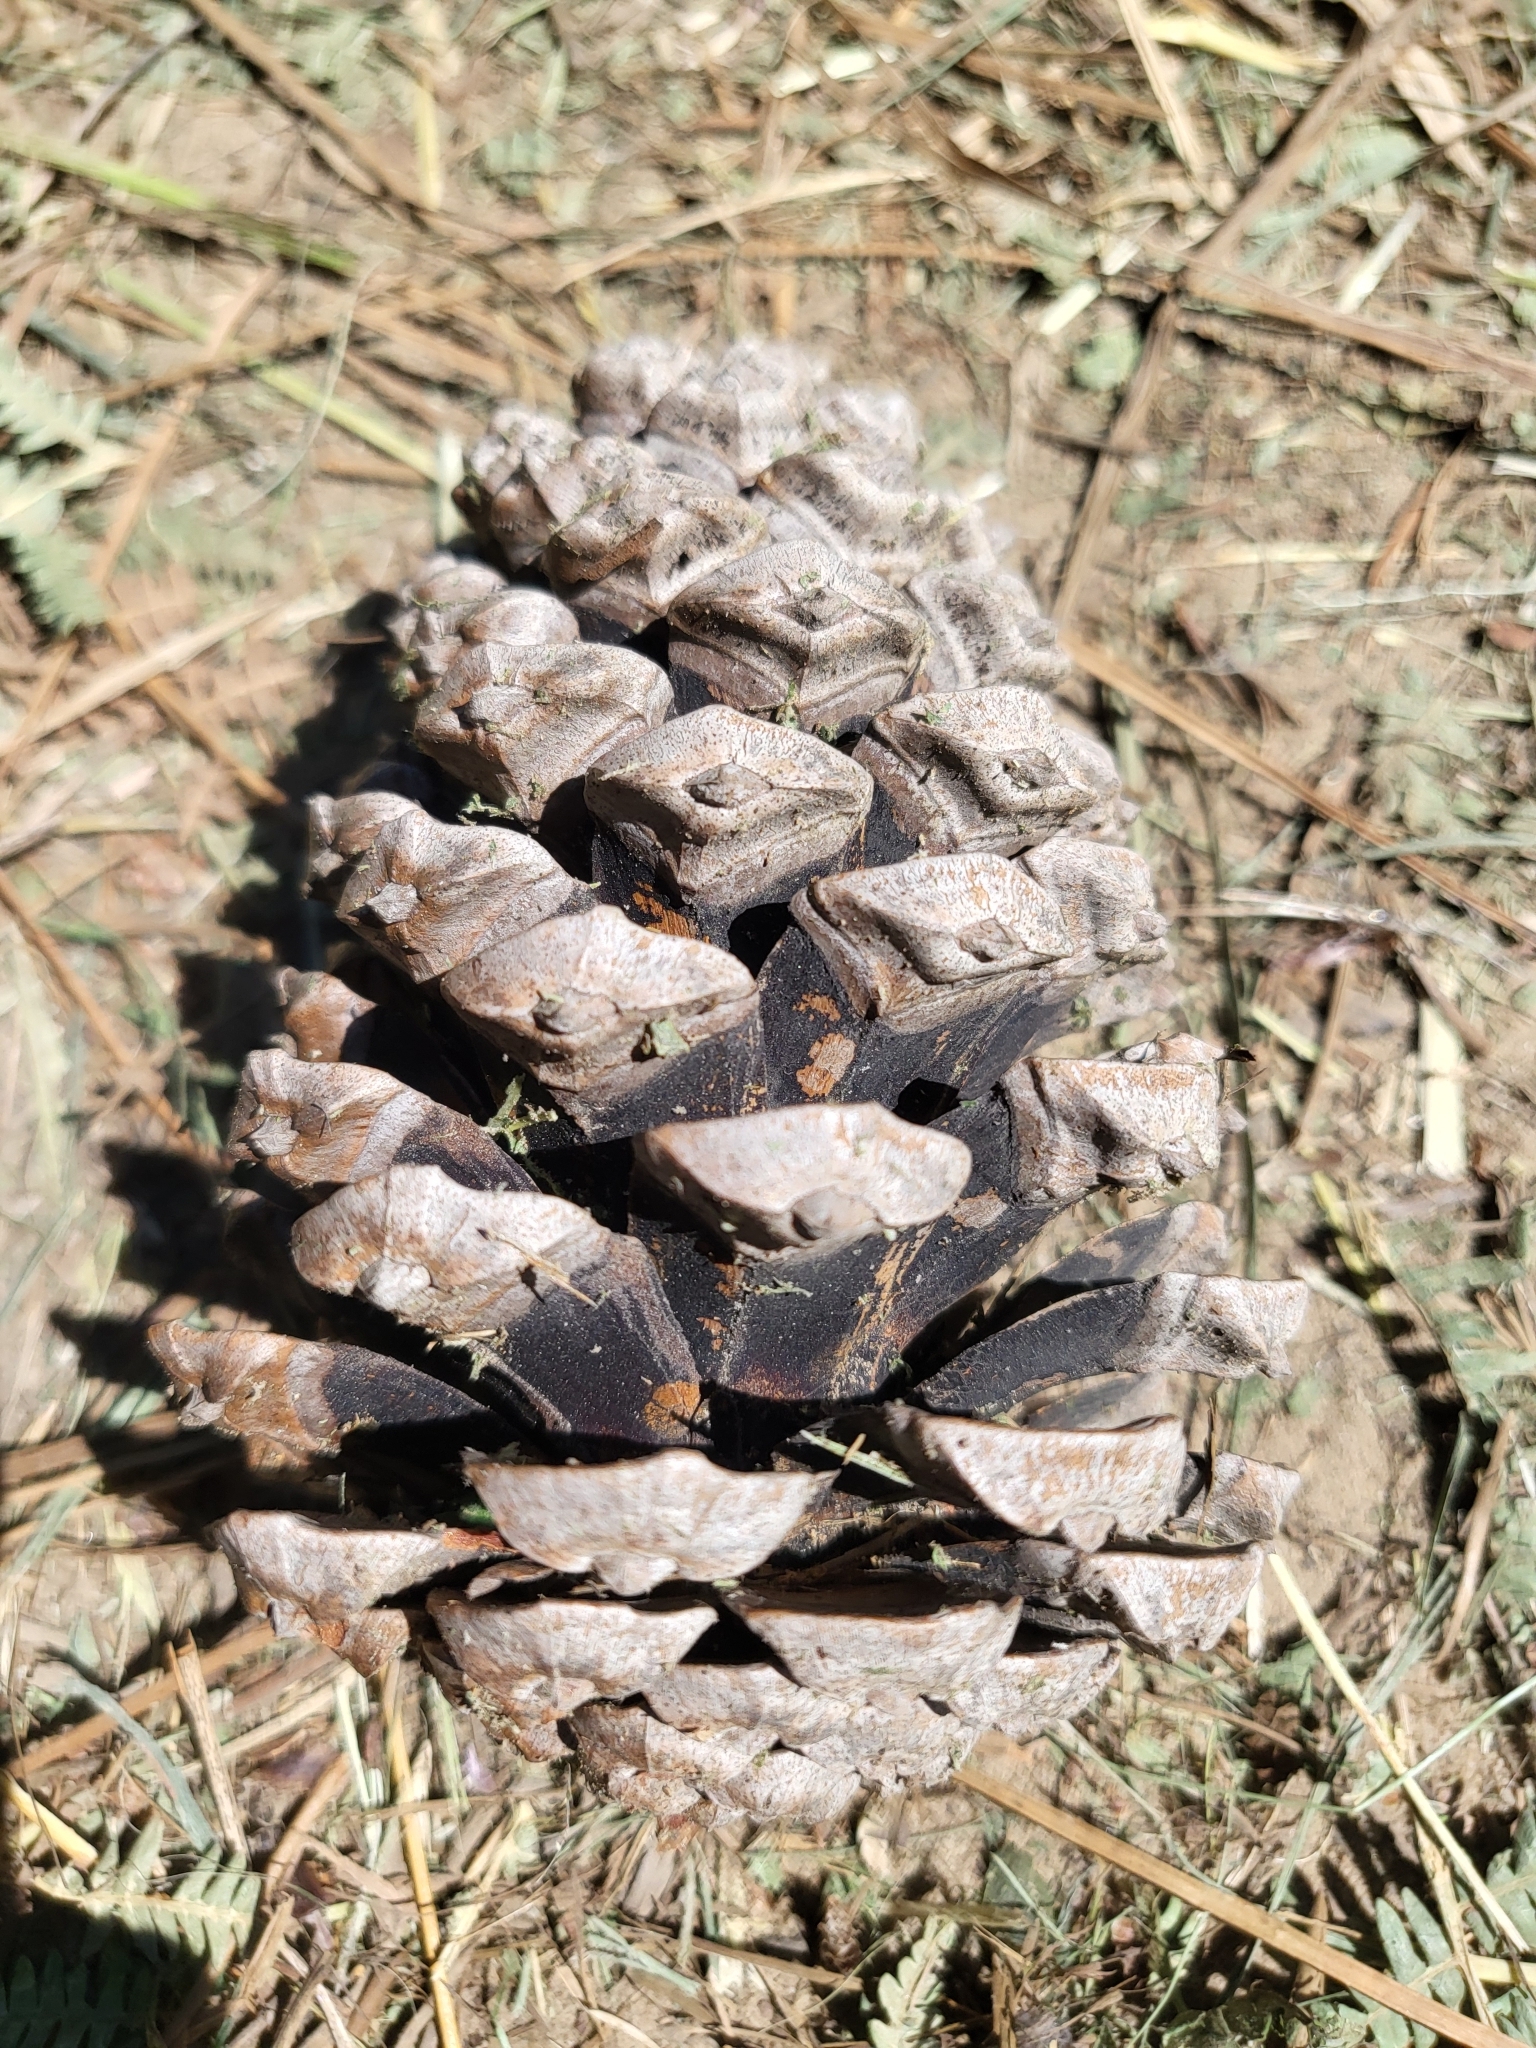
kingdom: Plantae
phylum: Tracheophyta
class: Pinopsida
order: Pinales
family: Pinaceae
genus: Pinus
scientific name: Pinus pinaster
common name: Maritime pine
